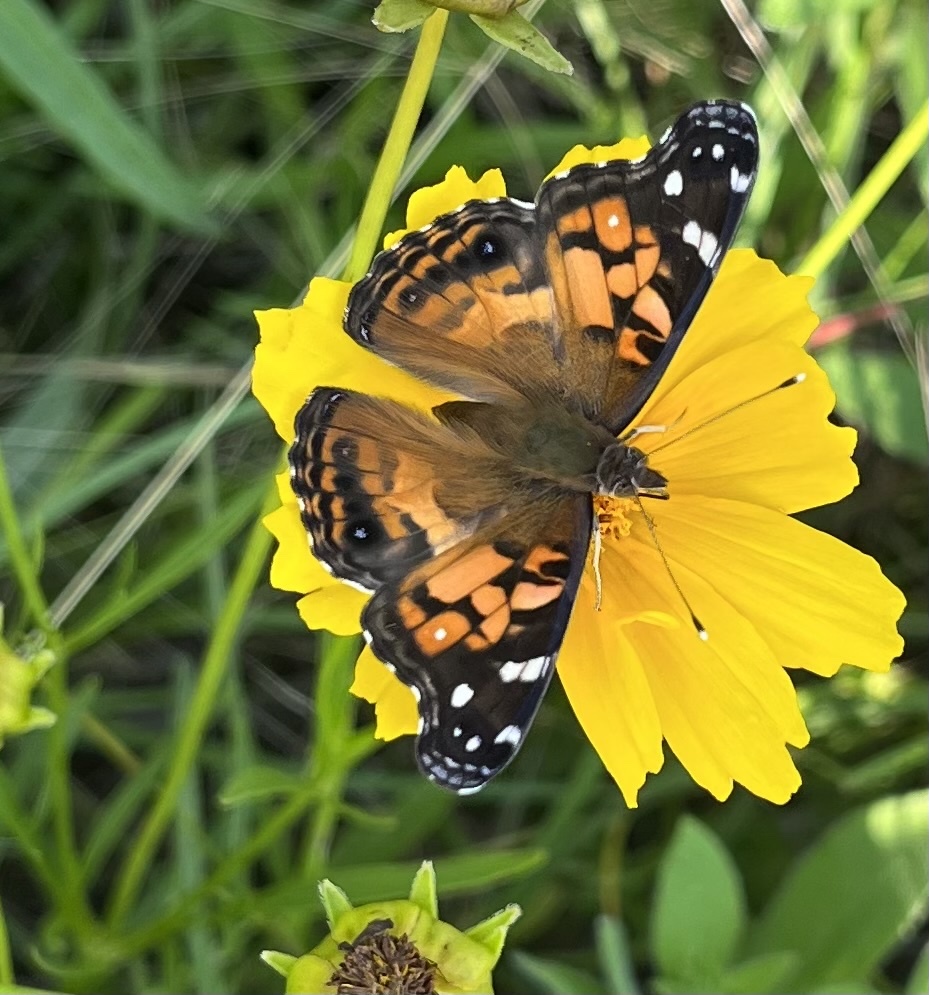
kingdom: Animalia
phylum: Arthropoda
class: Insecta
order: Lepidoptera
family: Nymphalidae
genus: Vanessa
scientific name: Vanessa virginiensis
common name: American lady
